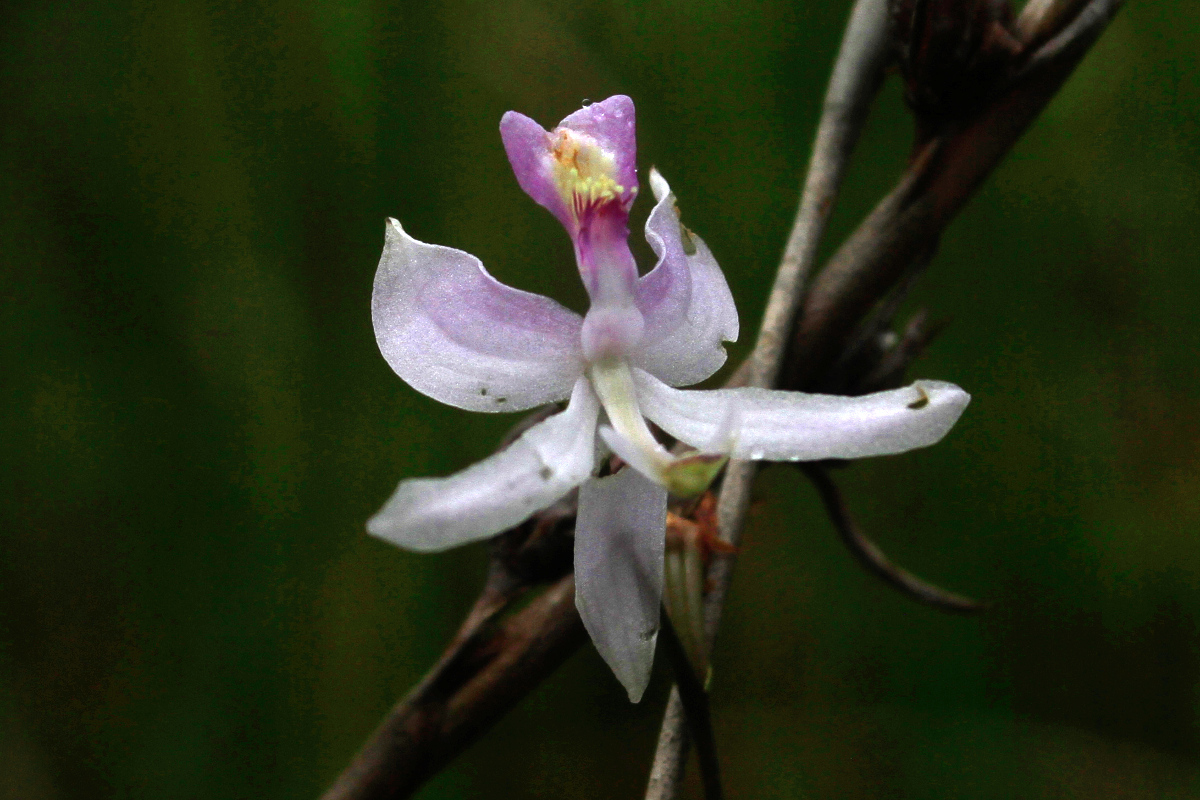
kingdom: Plantae
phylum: Tracheophyta
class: Liliopsida
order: Asparagales
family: Orchidaceae
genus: Calopogon
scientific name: Calopogon pallidus
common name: Pale grasspink
